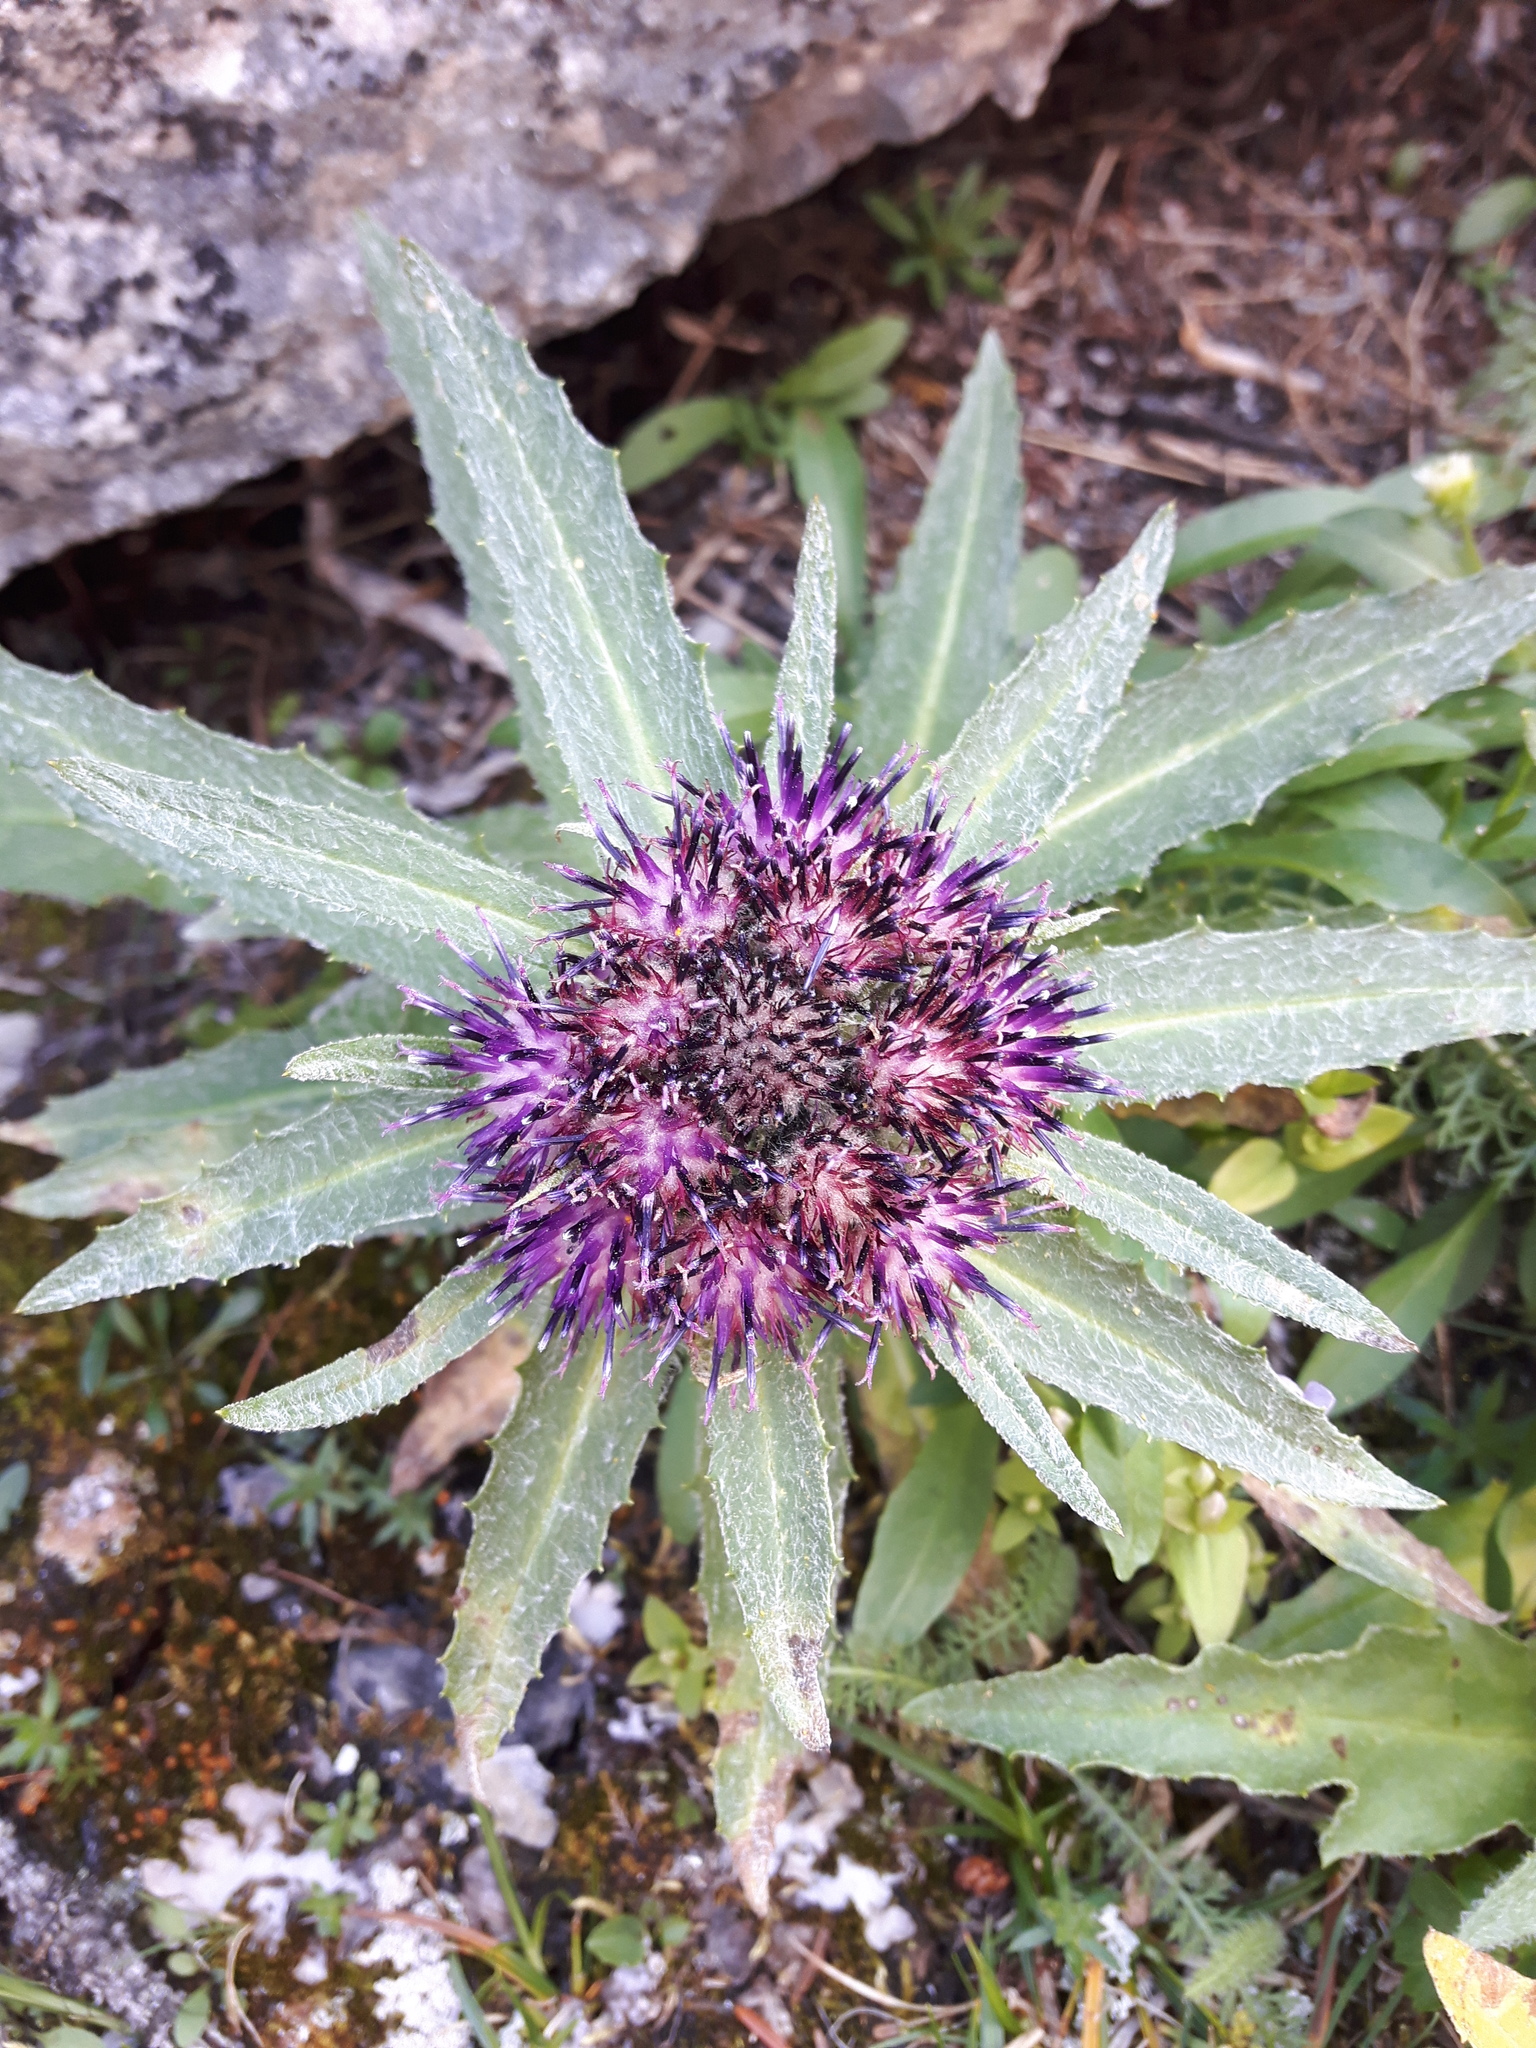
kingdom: Plantae
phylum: Tracheophyta
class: Magnoliopsida
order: Asterales
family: Asteraceae
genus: Saussurea
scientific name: Saussurea nuda
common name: Chaffless saw-wort
